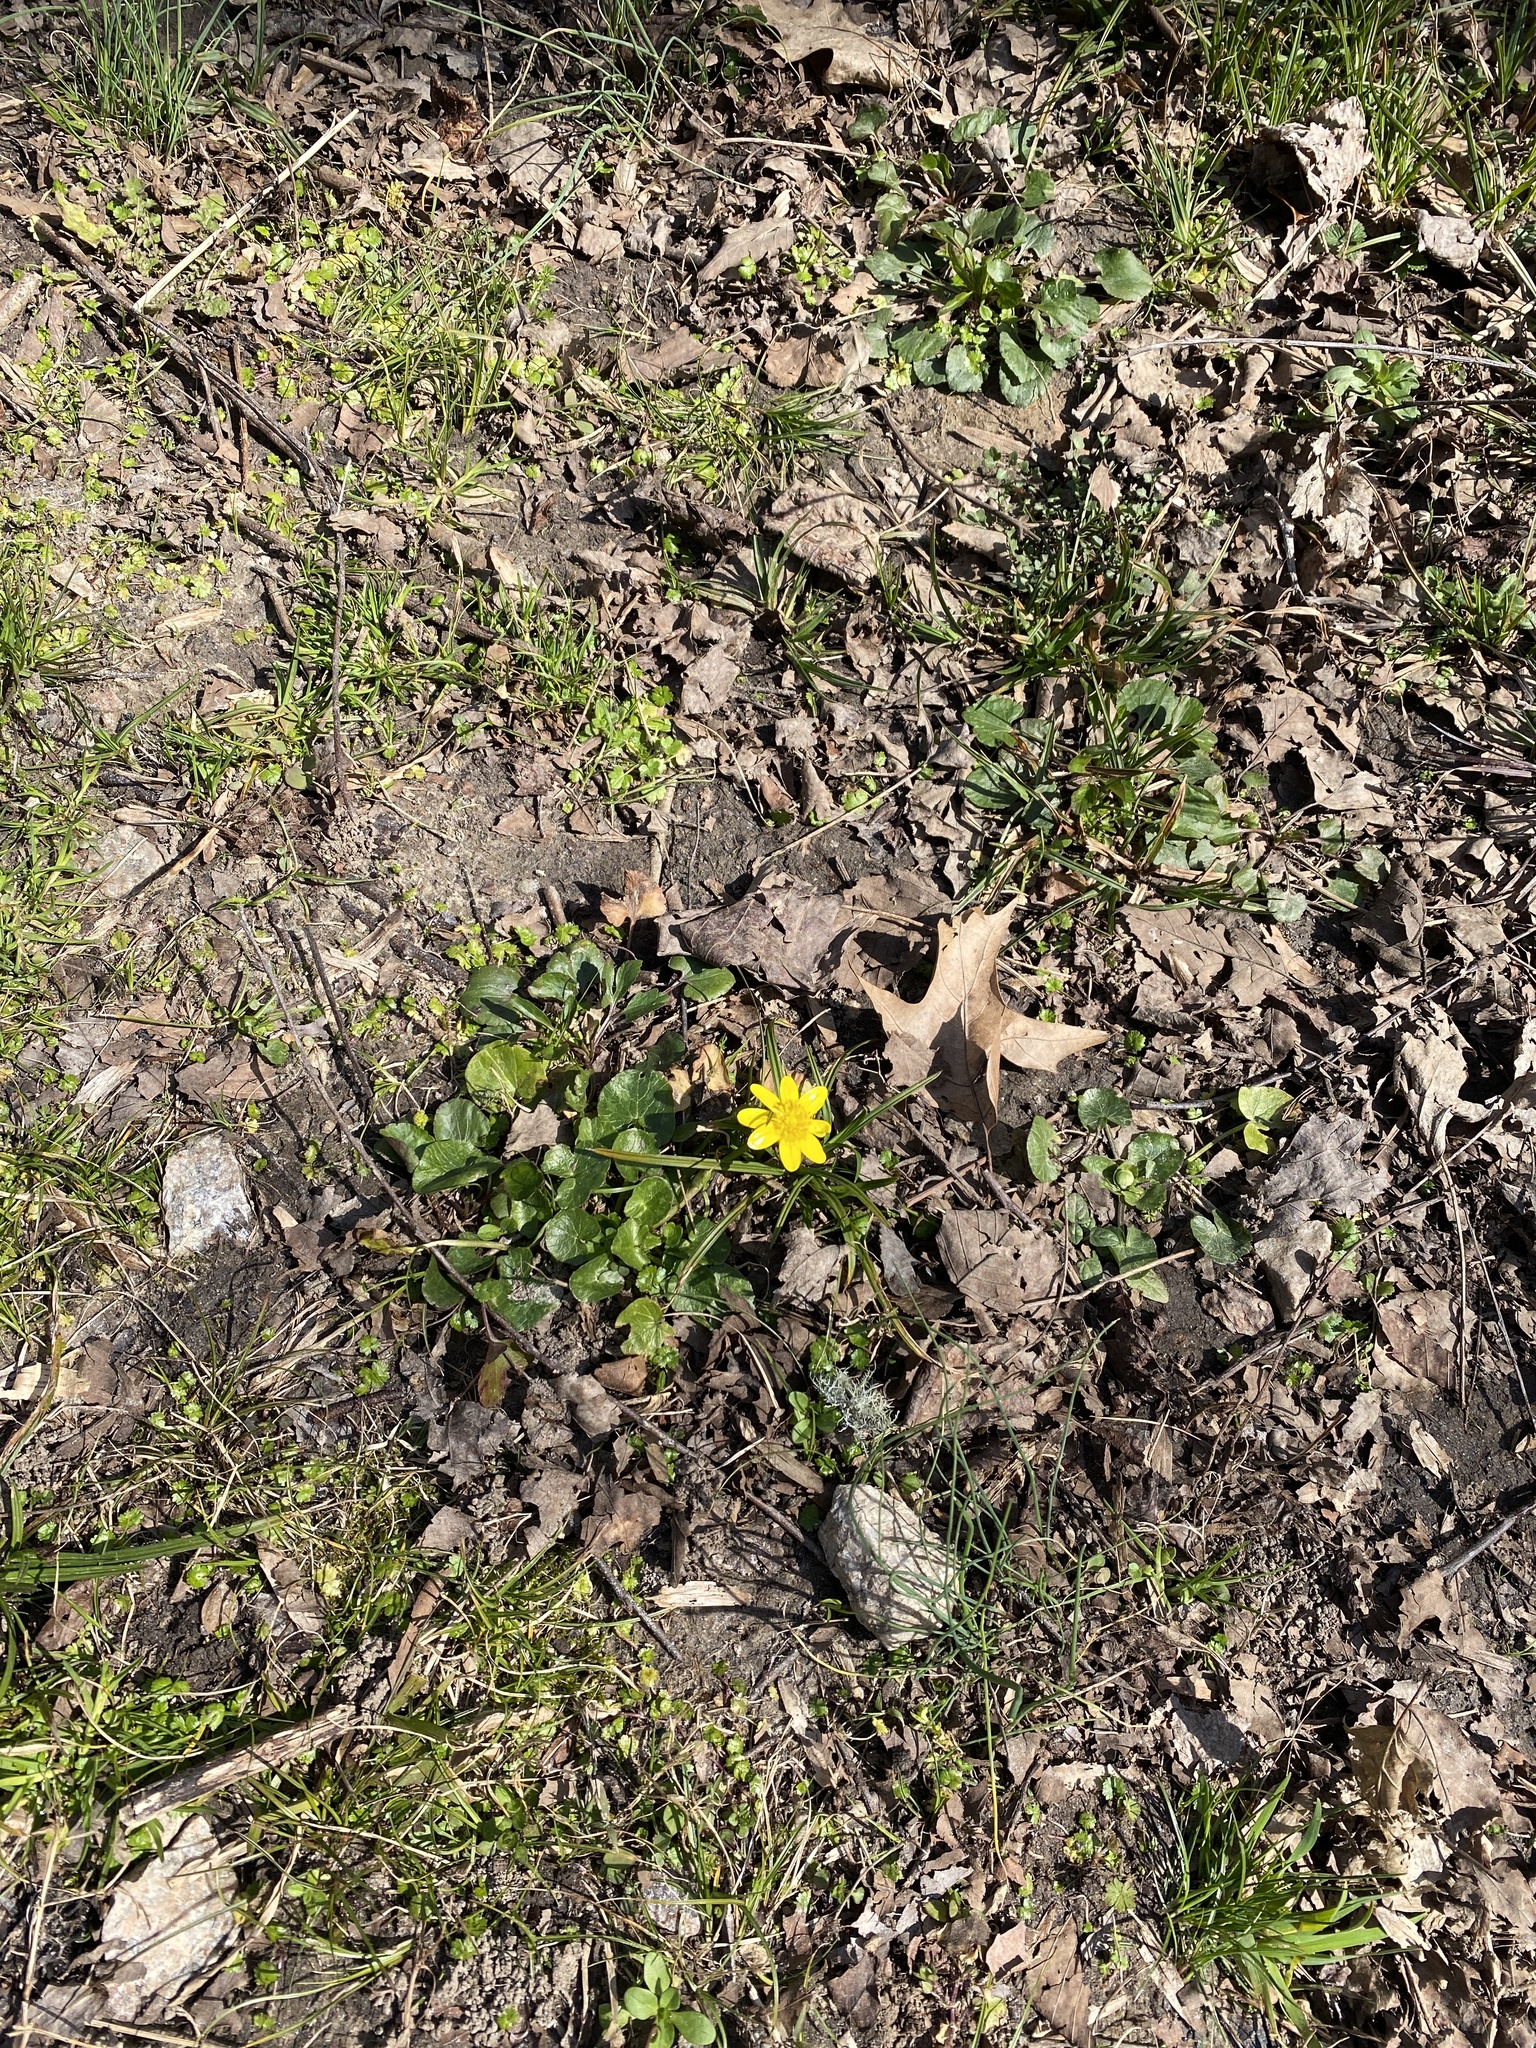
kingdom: Plantae
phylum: Tracheophyta
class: Magnoliopsida
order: Ranunculales
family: Ranunculaceae
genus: Ficaria
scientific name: Ficaria verna
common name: Lesser celandine
